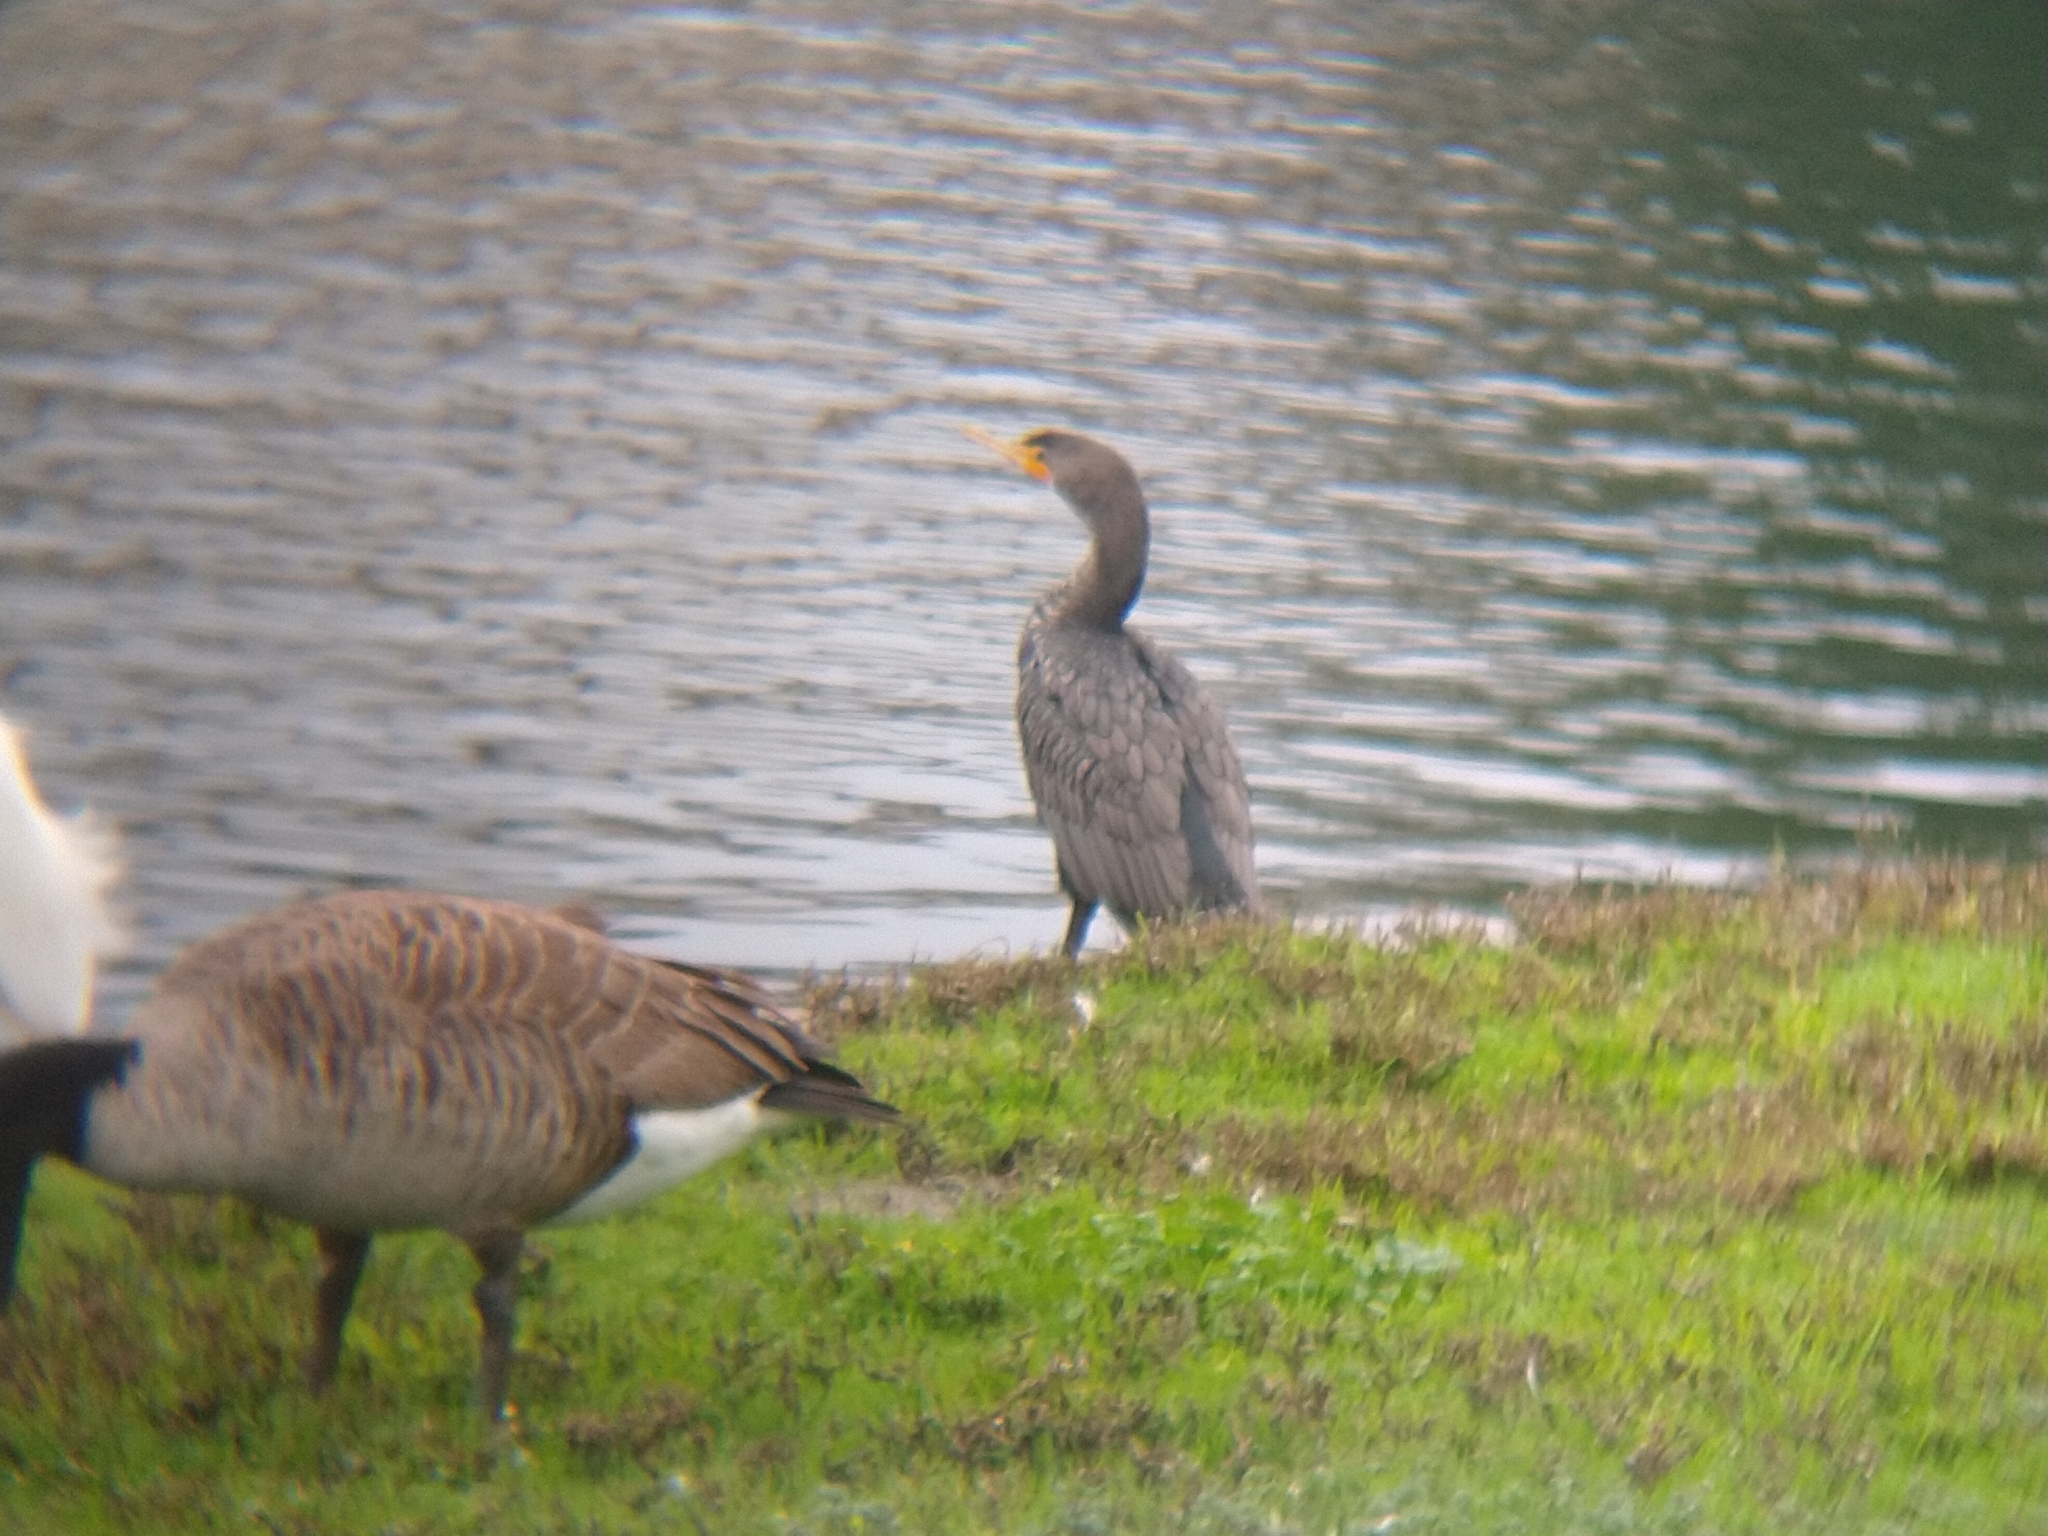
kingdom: Animalia
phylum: Chordata
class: Aves
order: Suliformes
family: Phalacrocoracidae
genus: Phalacrocorax
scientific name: Phalacrocorax auritus
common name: Double-crested cormorant
